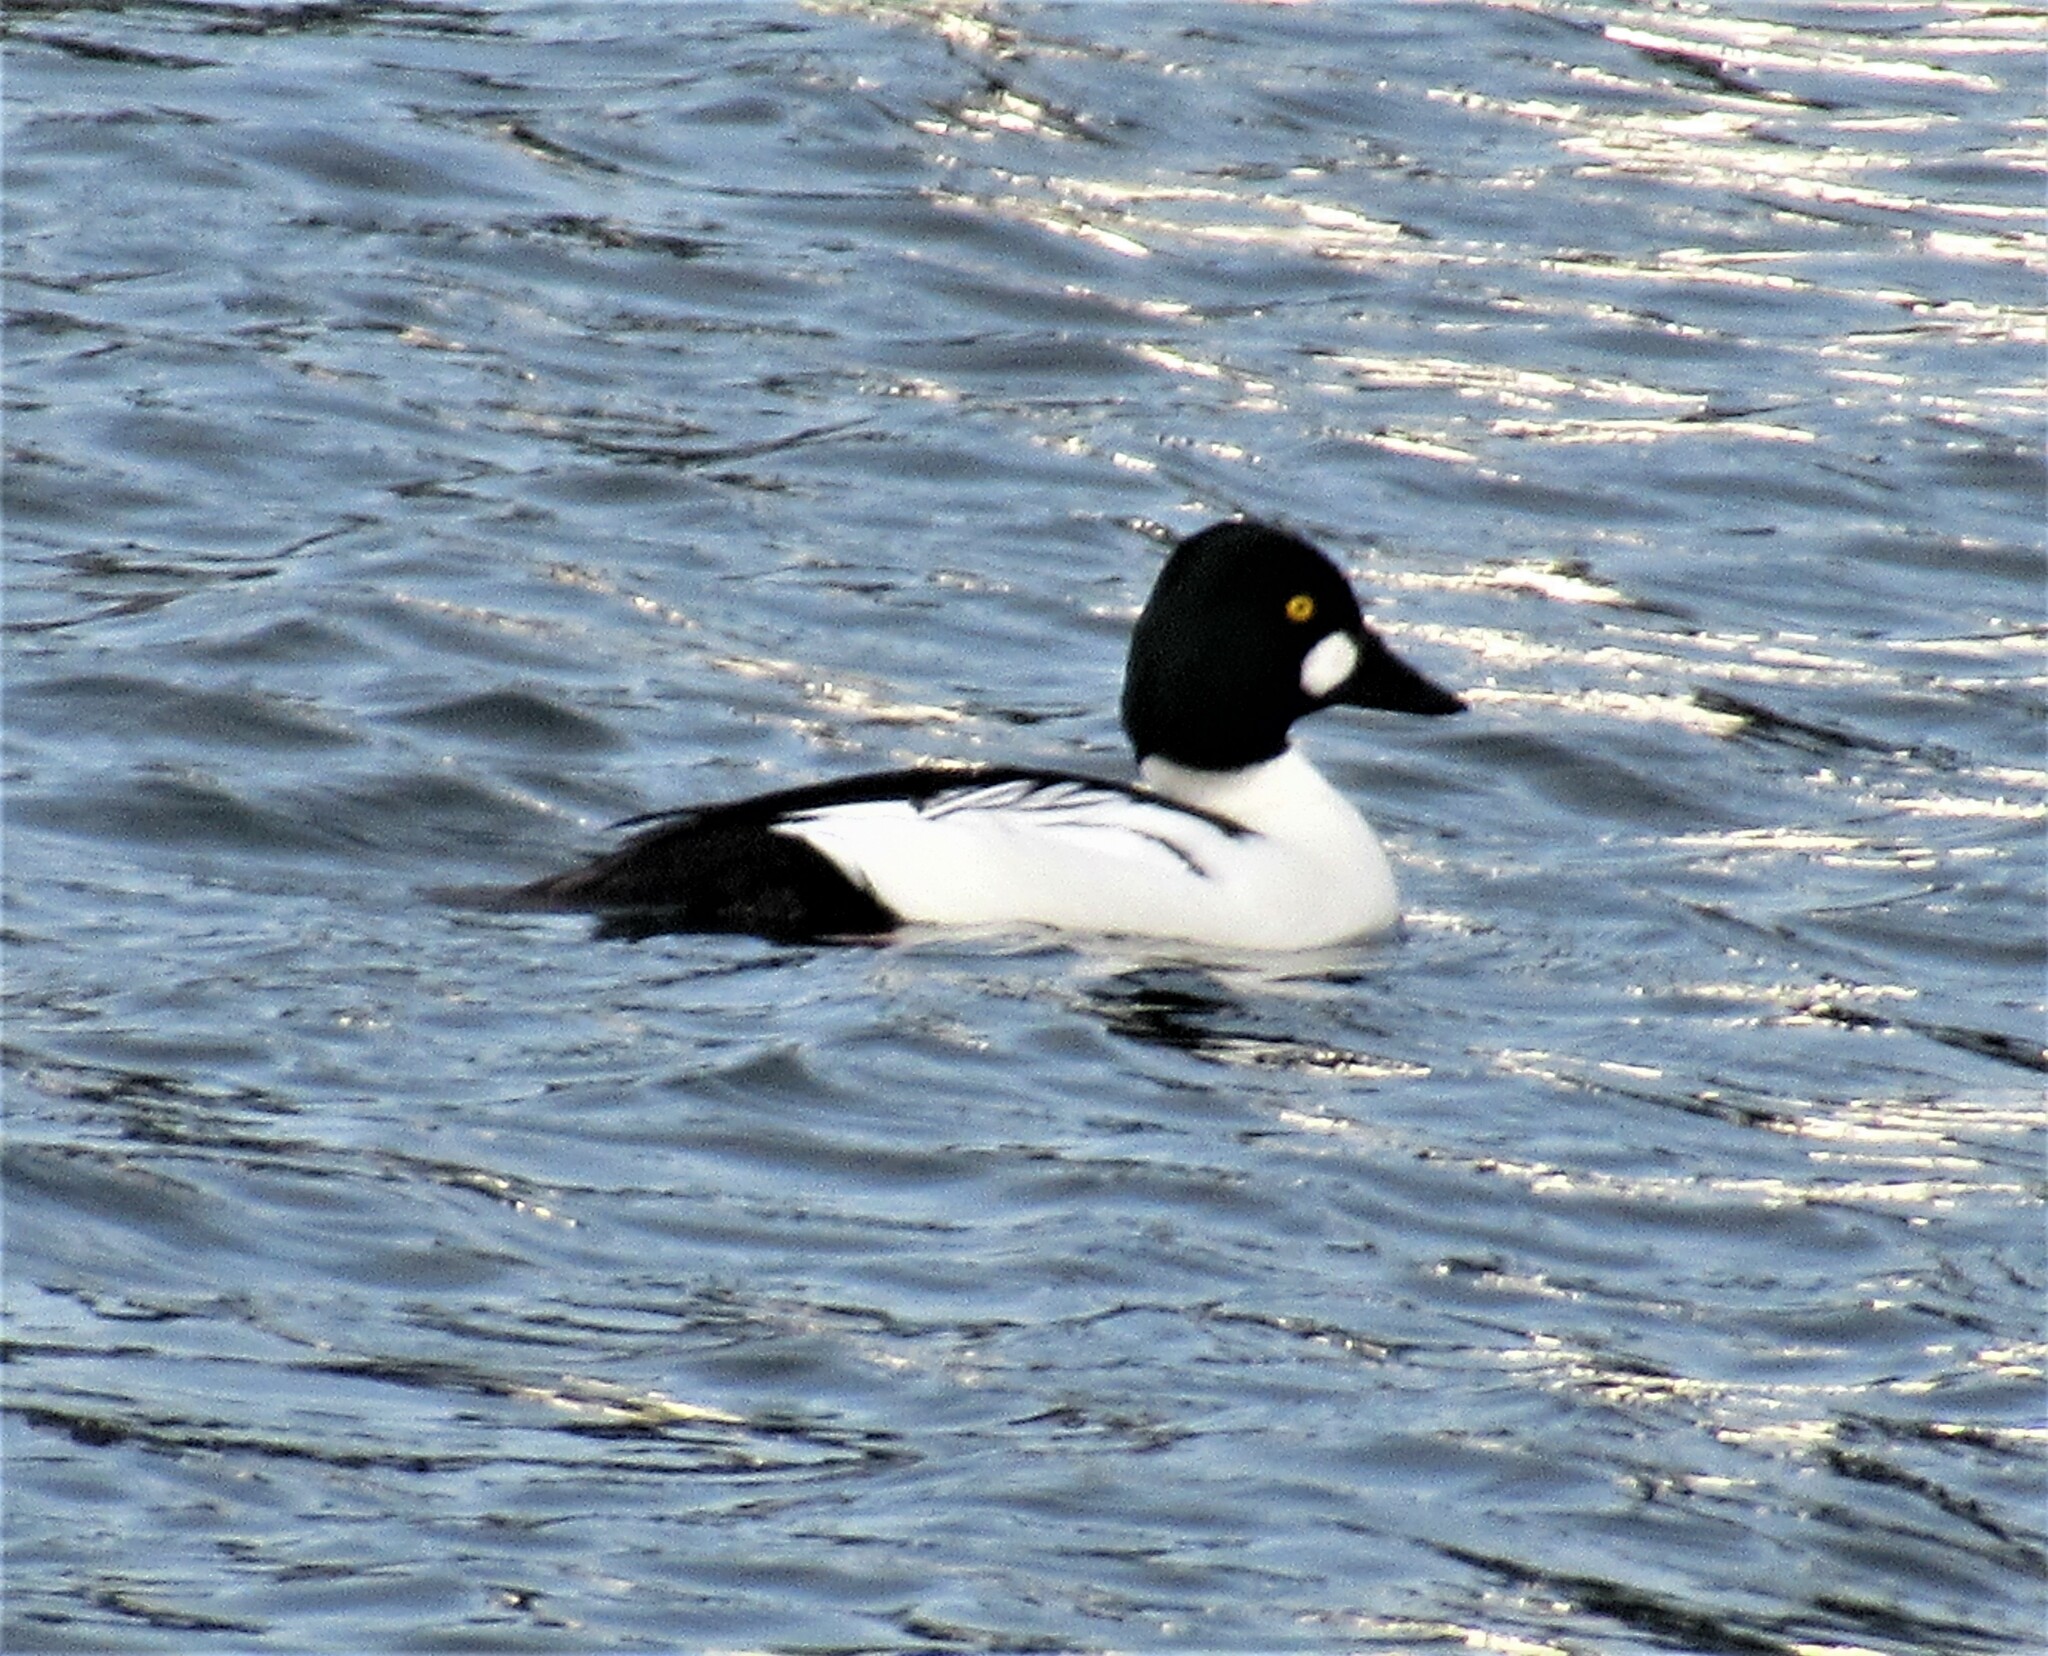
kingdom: Animalia
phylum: Chordata
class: Aves
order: Anseriformes
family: Anatidae
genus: Bucephala
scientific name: Bucephala clangula
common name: Common goldeneye
